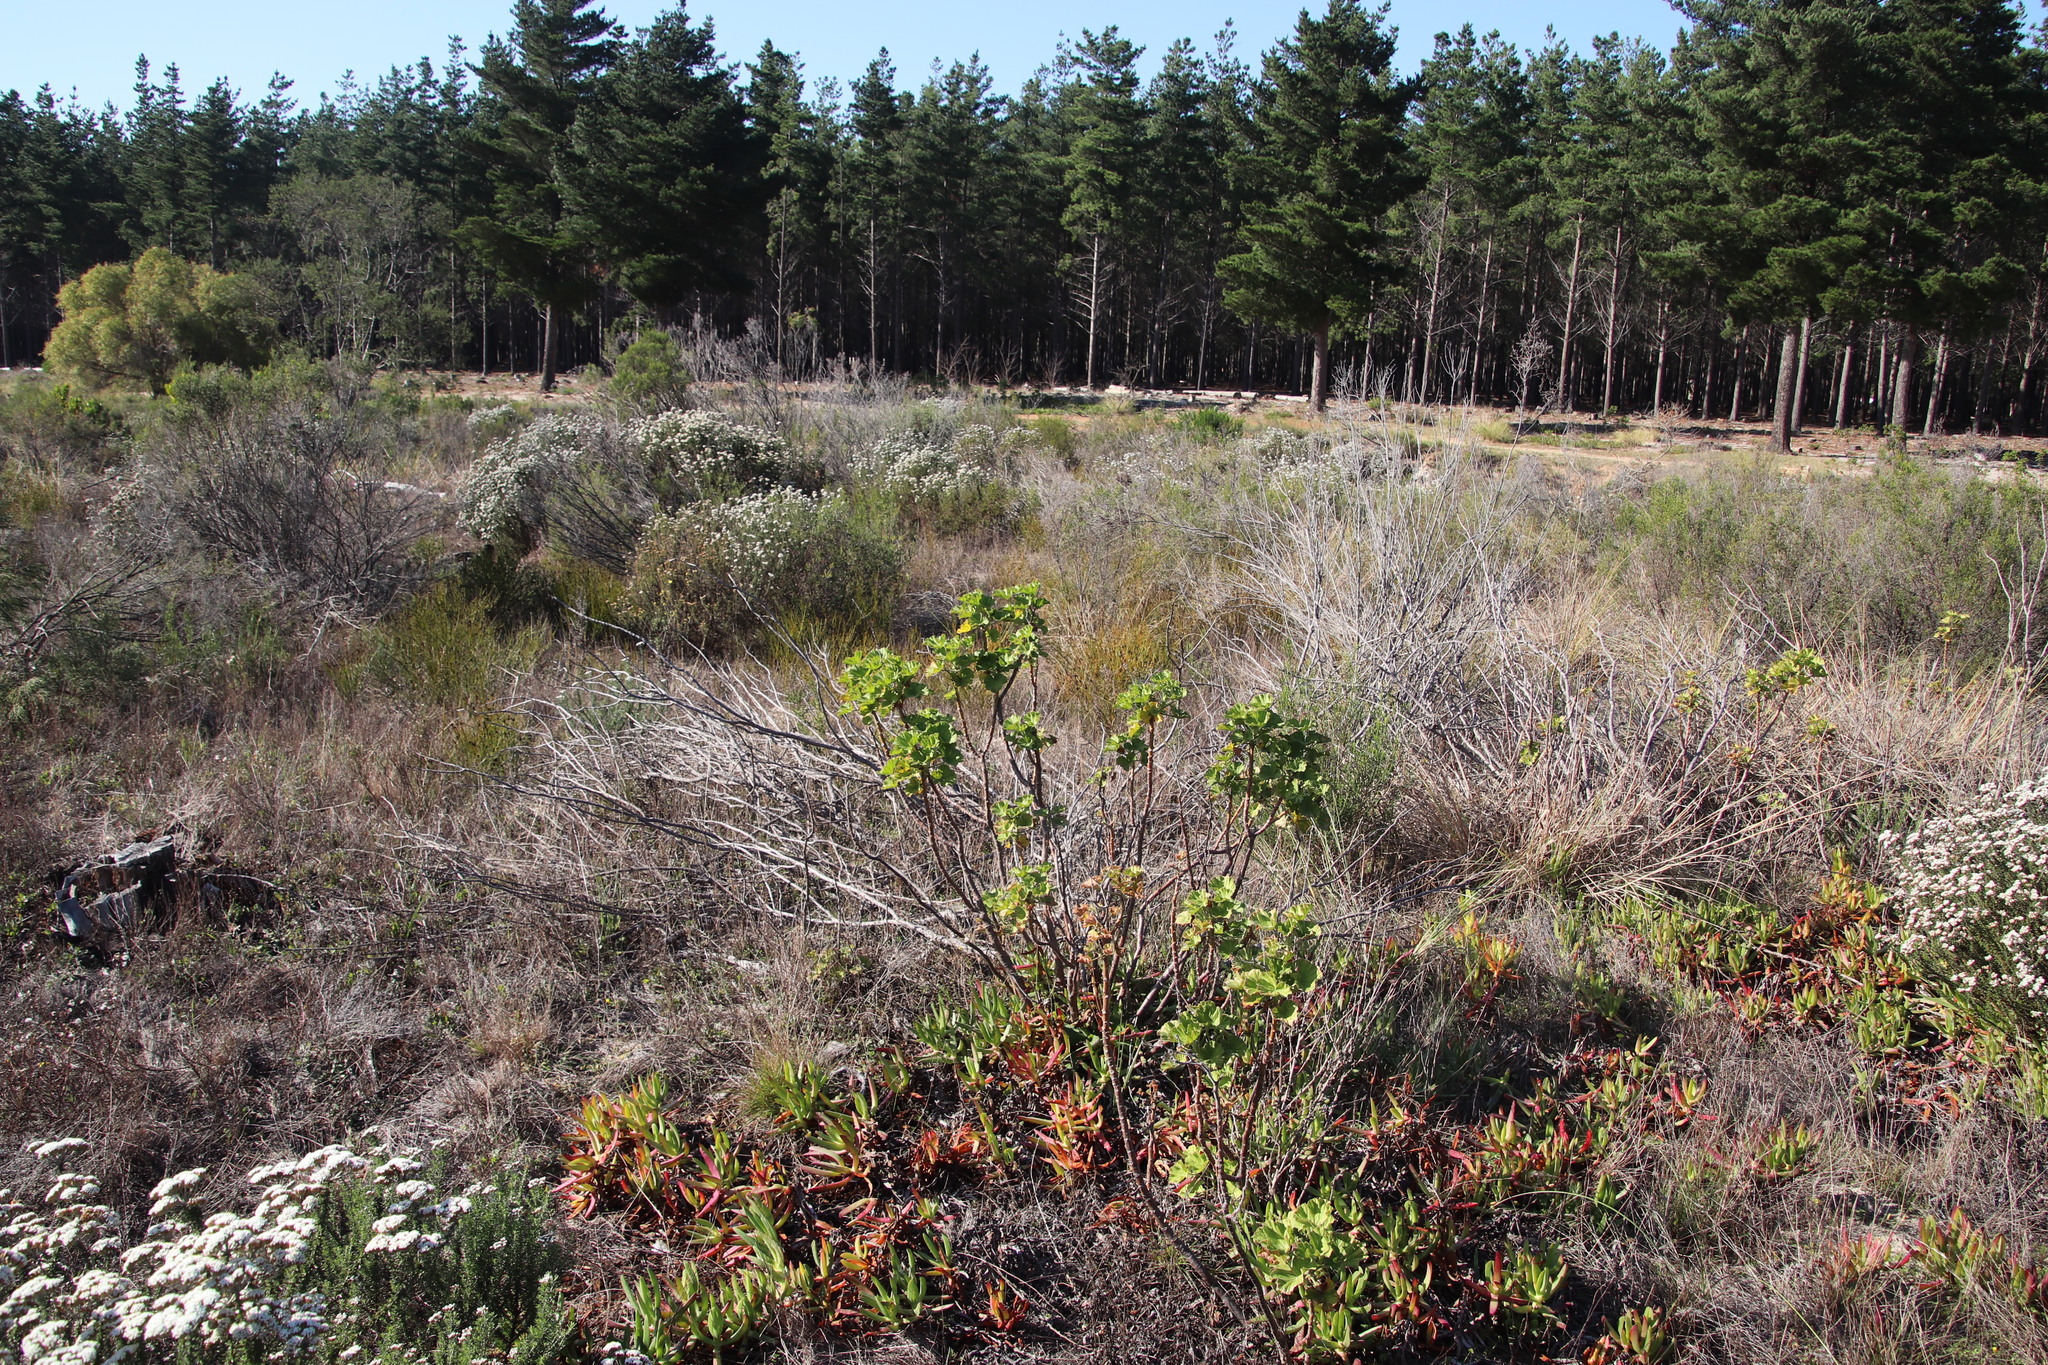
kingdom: Plantae
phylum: Tracheophyta
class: Magnoliopsida
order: Geraniales
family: Geraniaceae
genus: Pelargonium
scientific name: Pelargonium cucullatum
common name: Tree pelargonium
